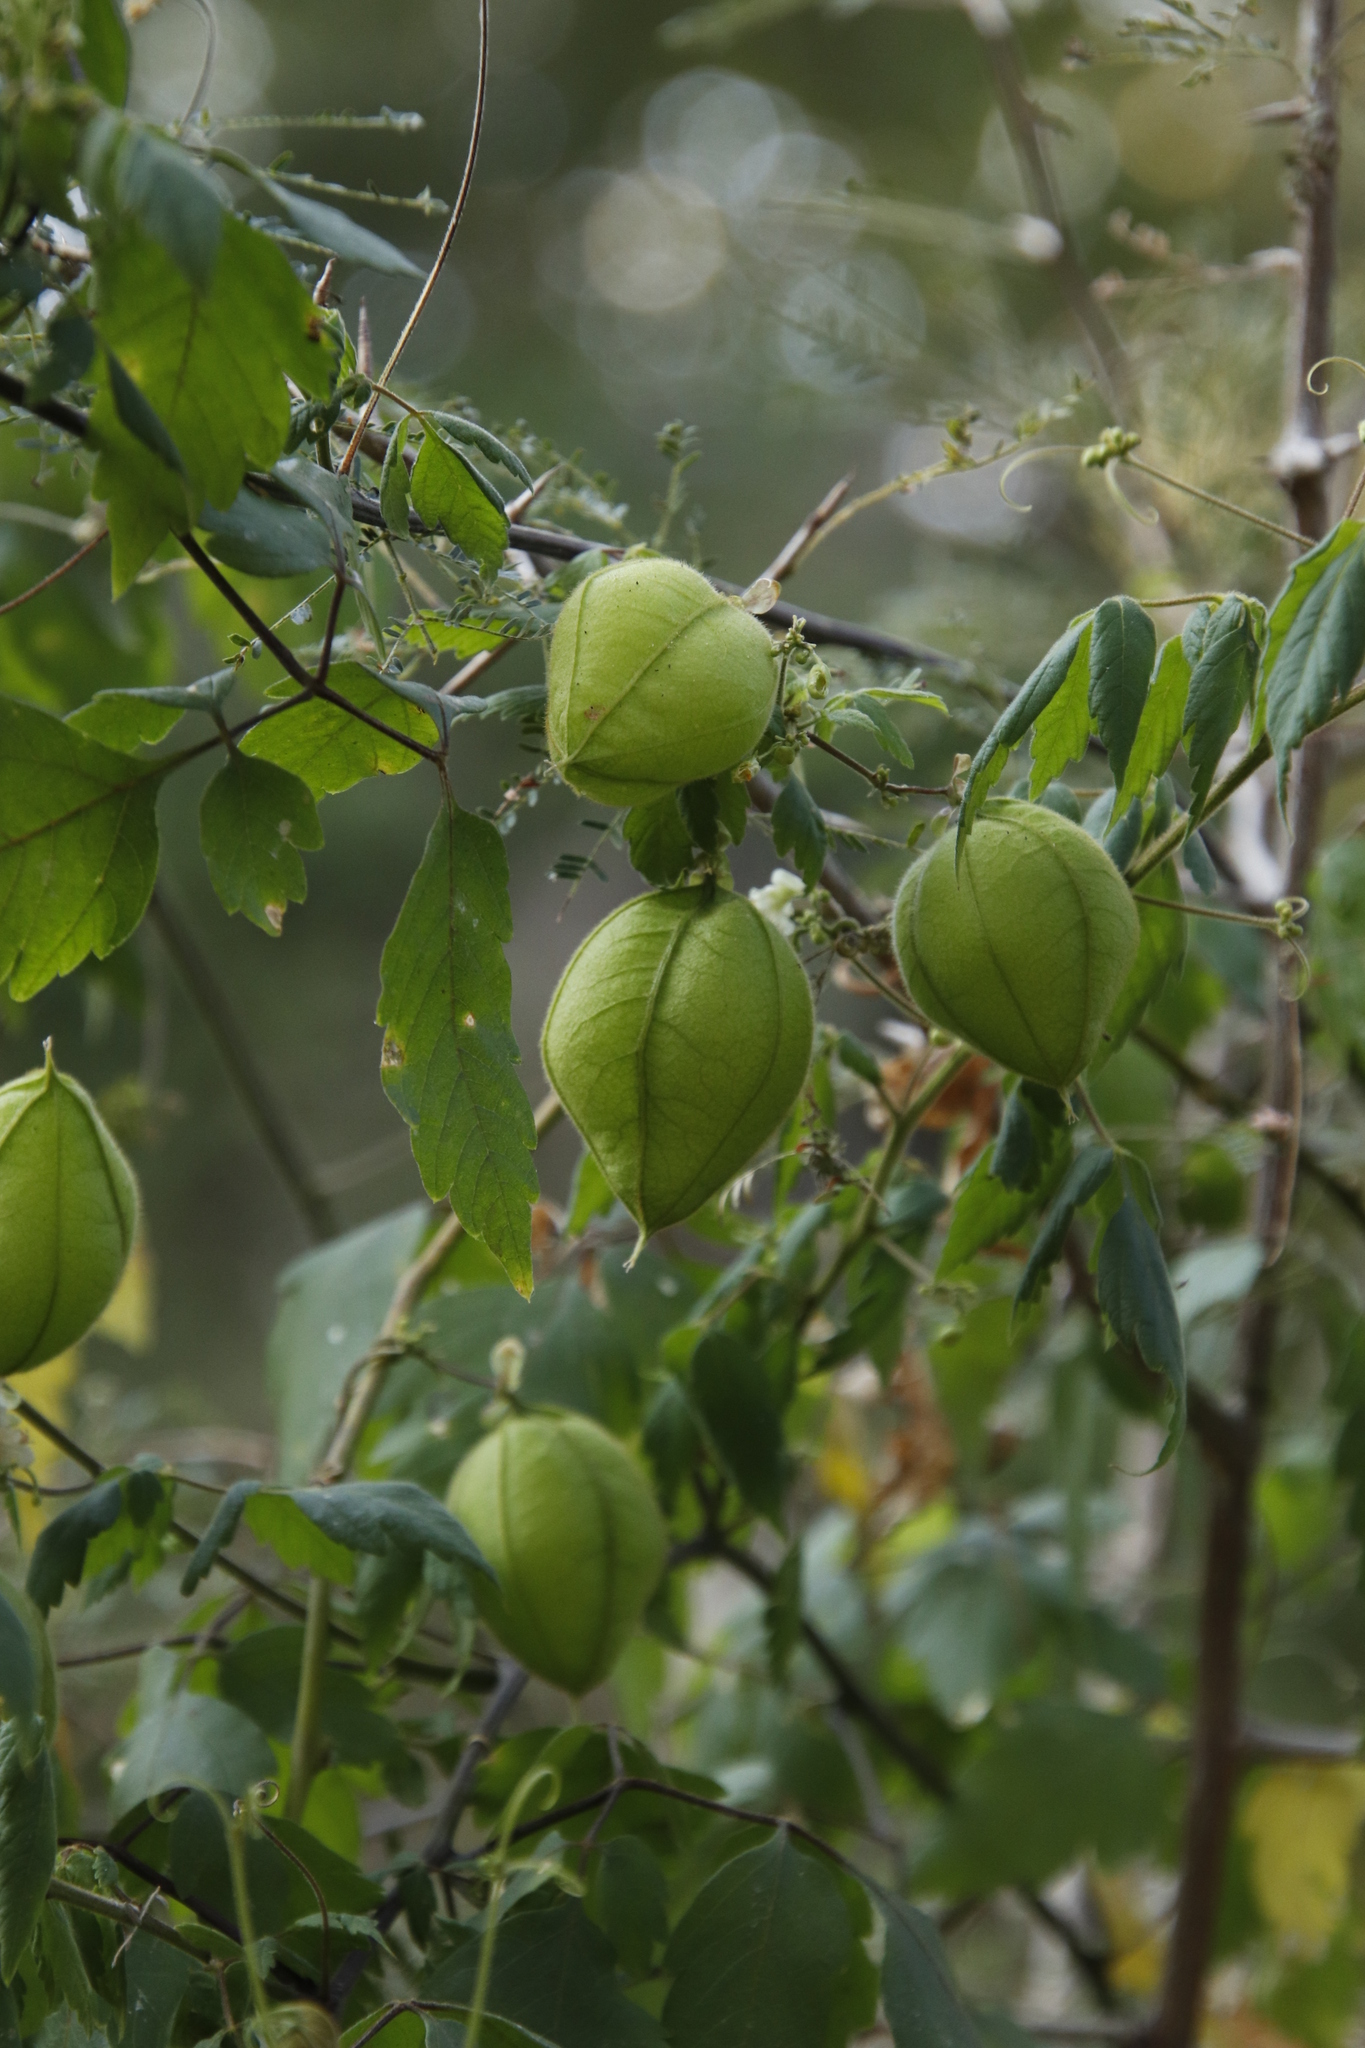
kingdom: Plantae
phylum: Tracheophyta
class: Magnoliopsida
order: Sapindales
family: Sapindaceae
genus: Cardiospermum
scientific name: Cardiospermum grandiflorum
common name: Balloon vine
